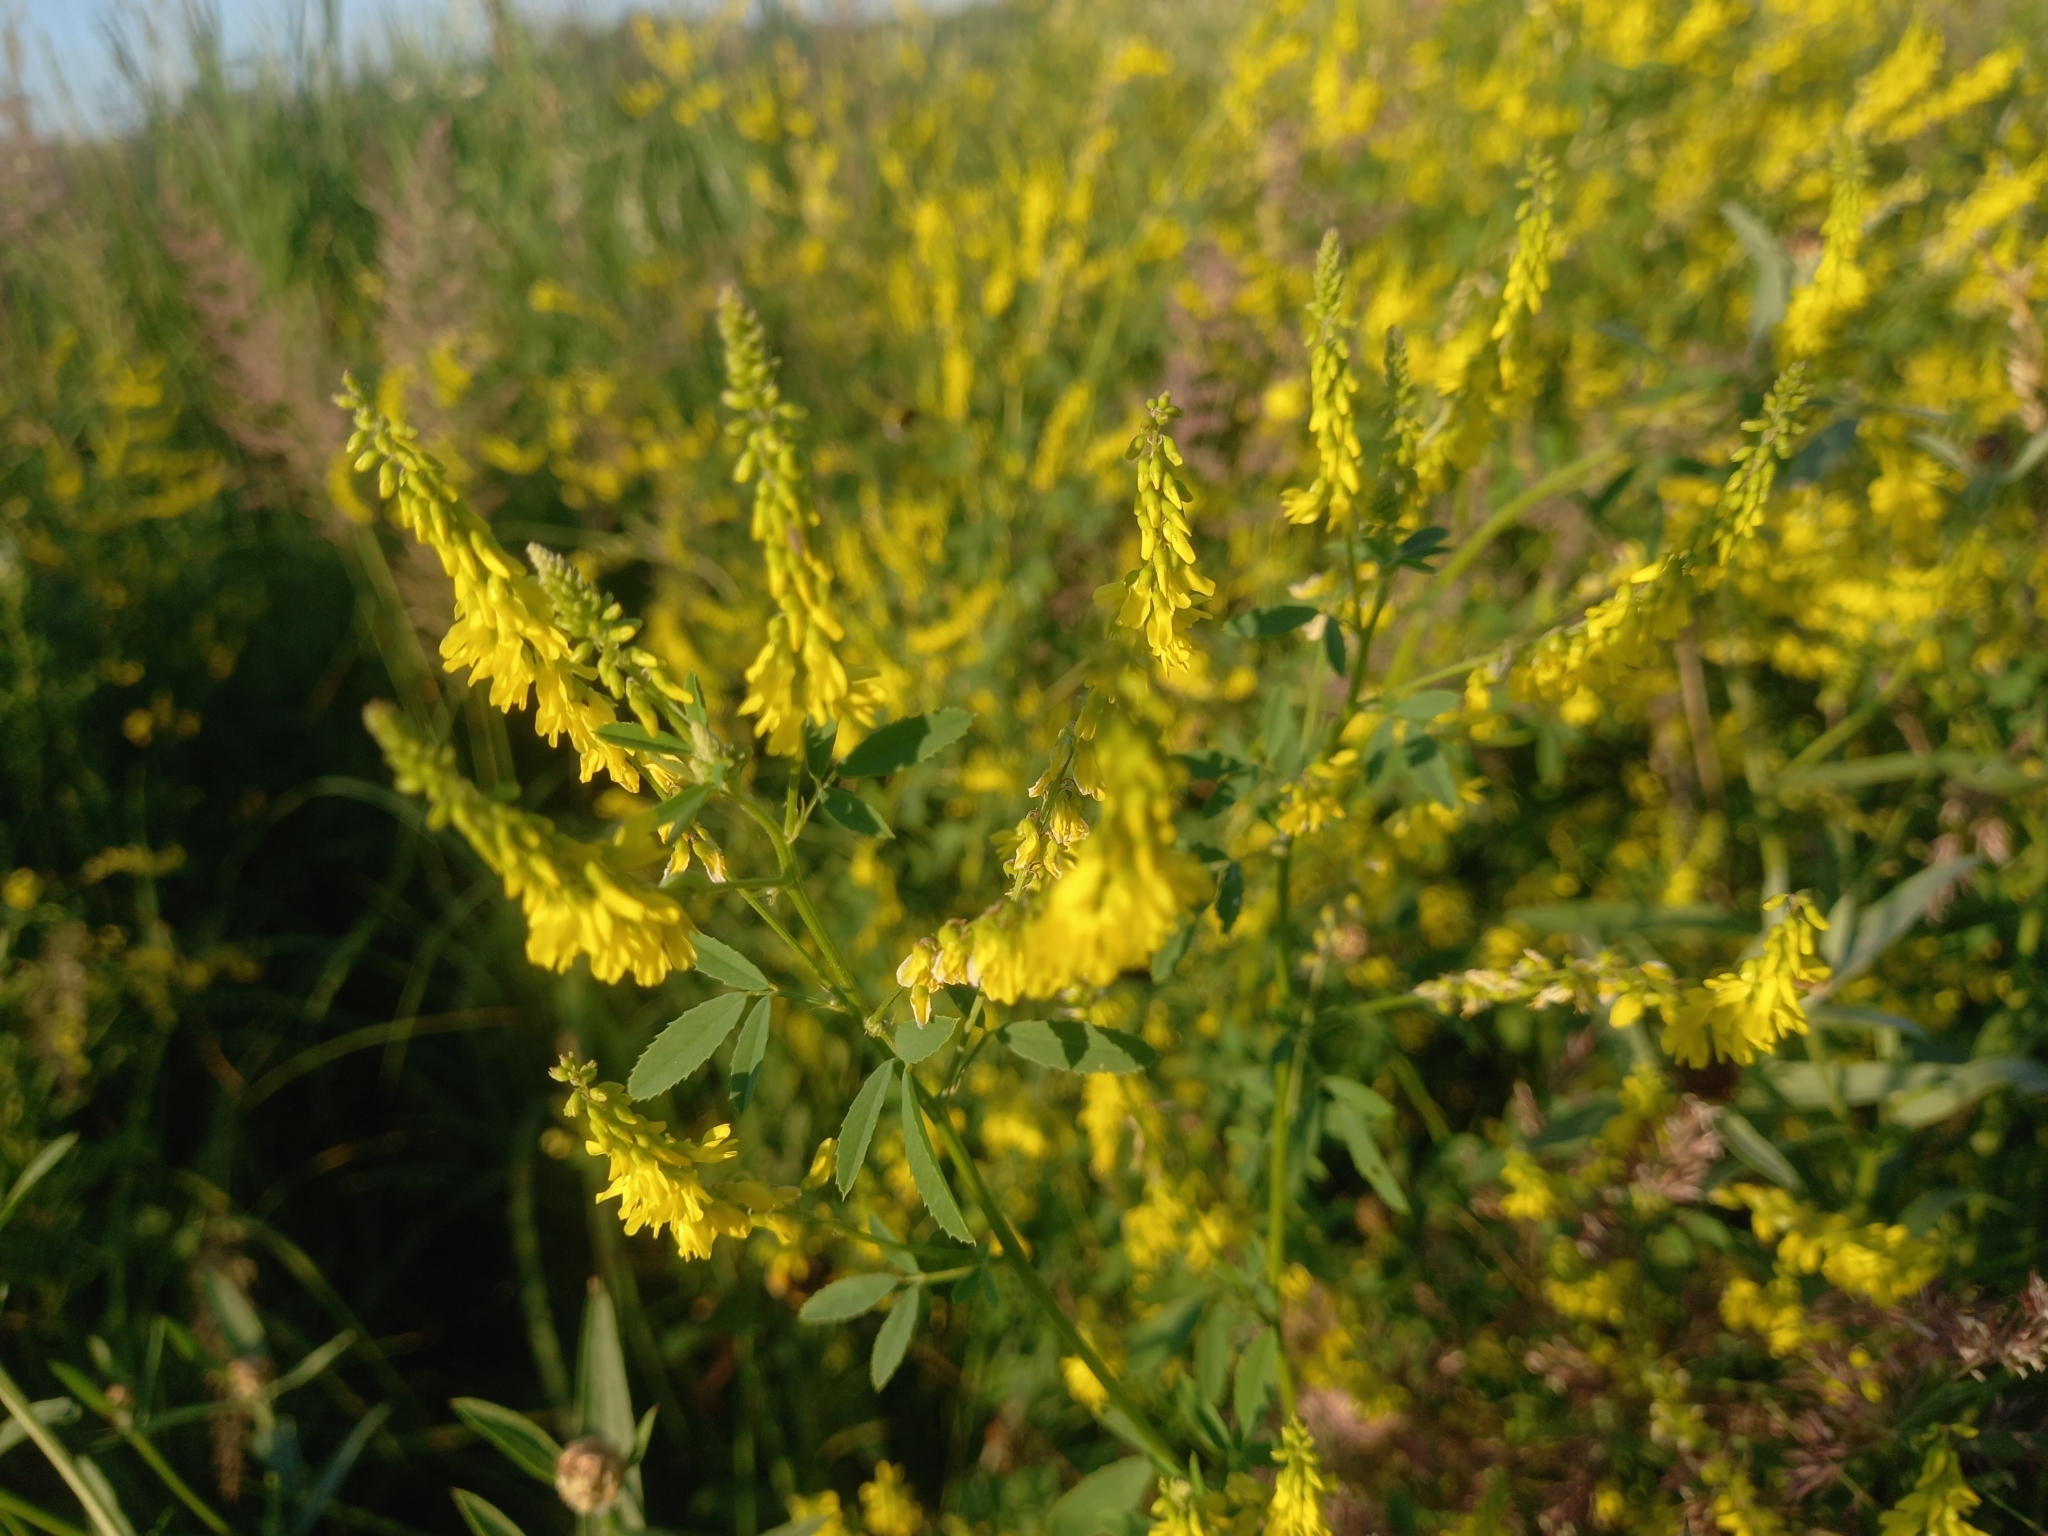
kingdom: Plantae
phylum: Tracheophyta
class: Magnoliopsida
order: Fabales
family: Fabaceae
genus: Melilotus
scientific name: Melilotus officinalis
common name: Sweetclover
